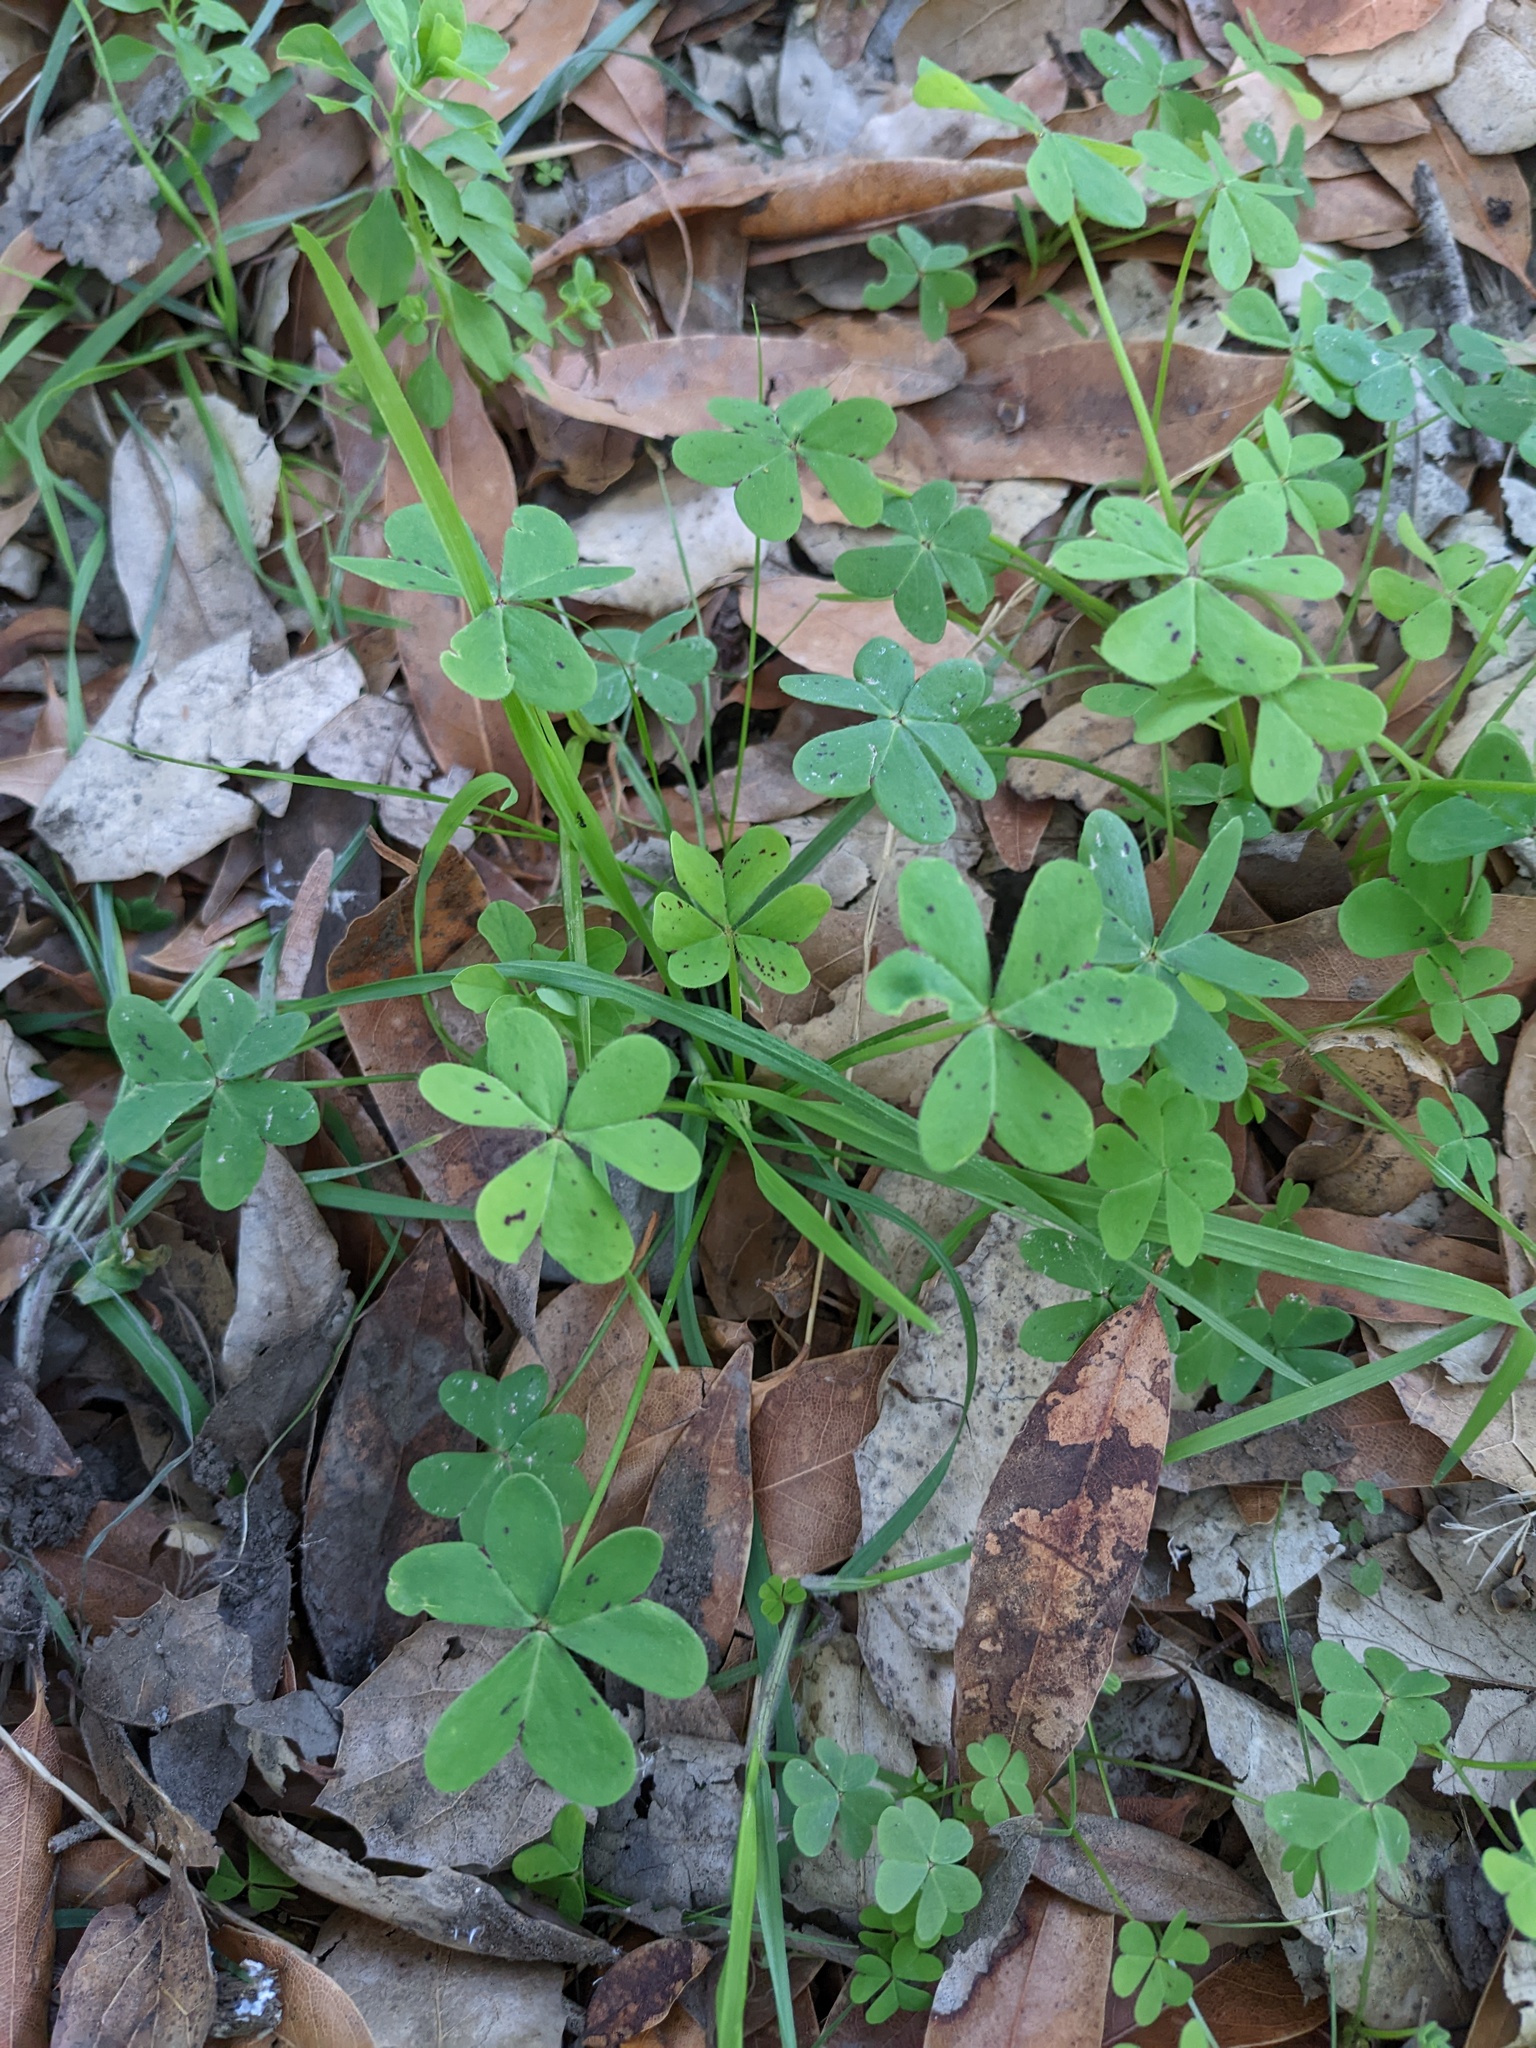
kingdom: Plantae
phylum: Tracheophyta
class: Magnoliopsida
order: Oxalidales
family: Oxalidaceae
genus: Oxalis
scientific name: Oxalis pes-caprae
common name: Bermuda-buttercup
